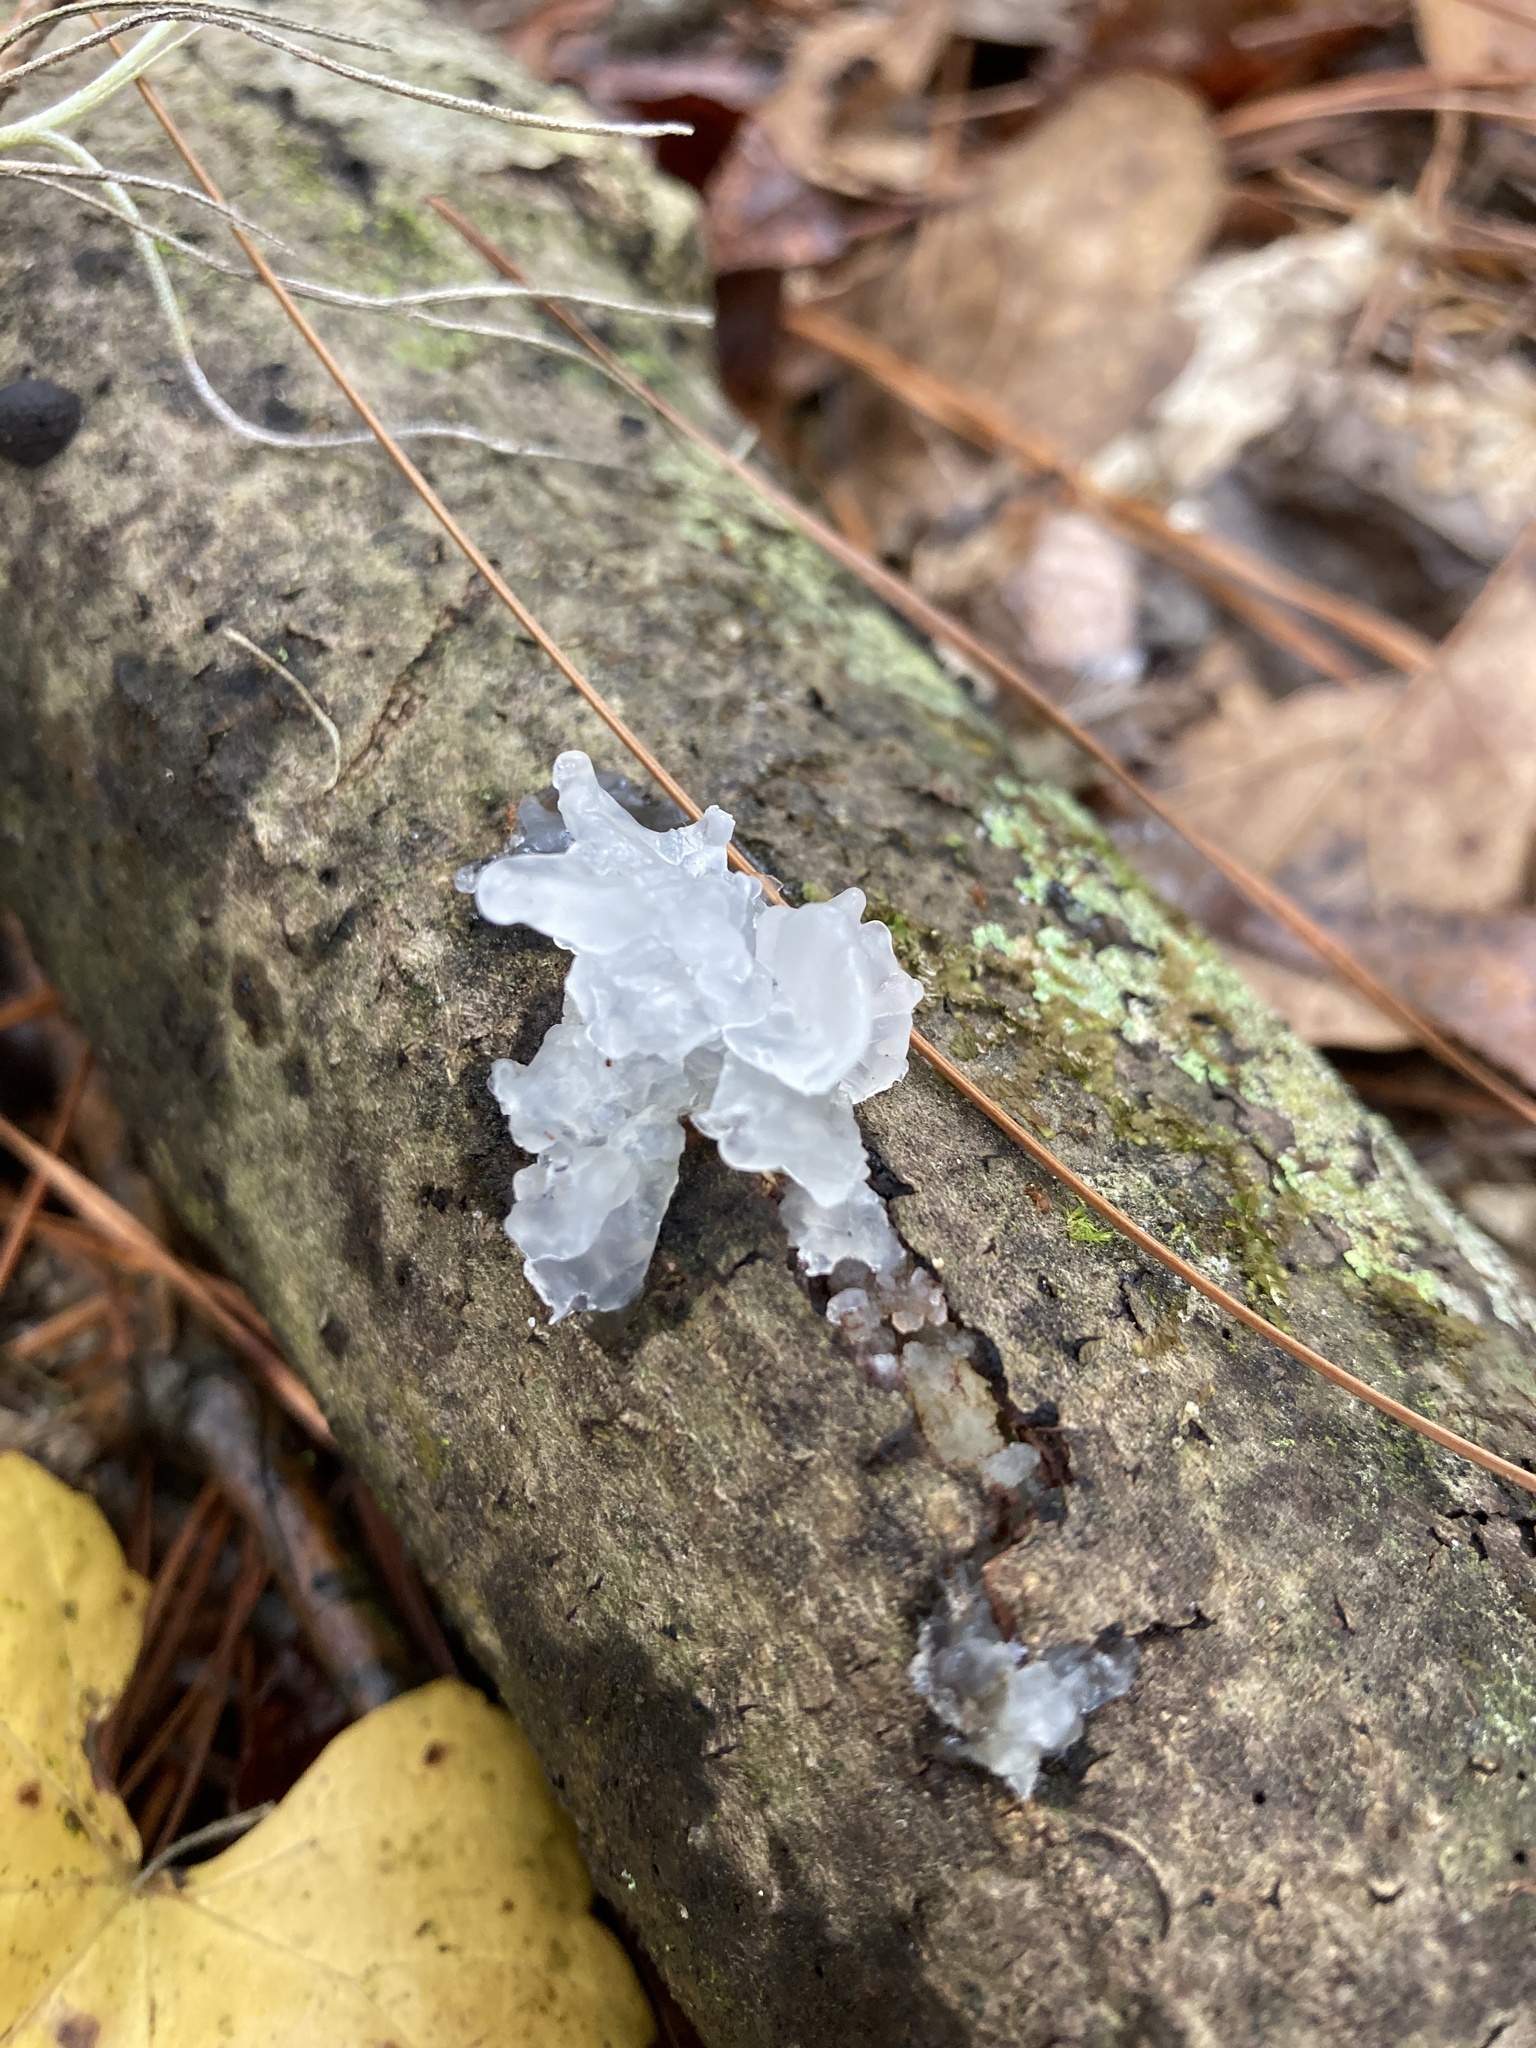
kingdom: Fungi
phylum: Basidiomycota
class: Tremellomycetes
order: Tremellales
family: Tremellaceae
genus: Tremella
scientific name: Tremella fuciformis
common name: Snow fungus
